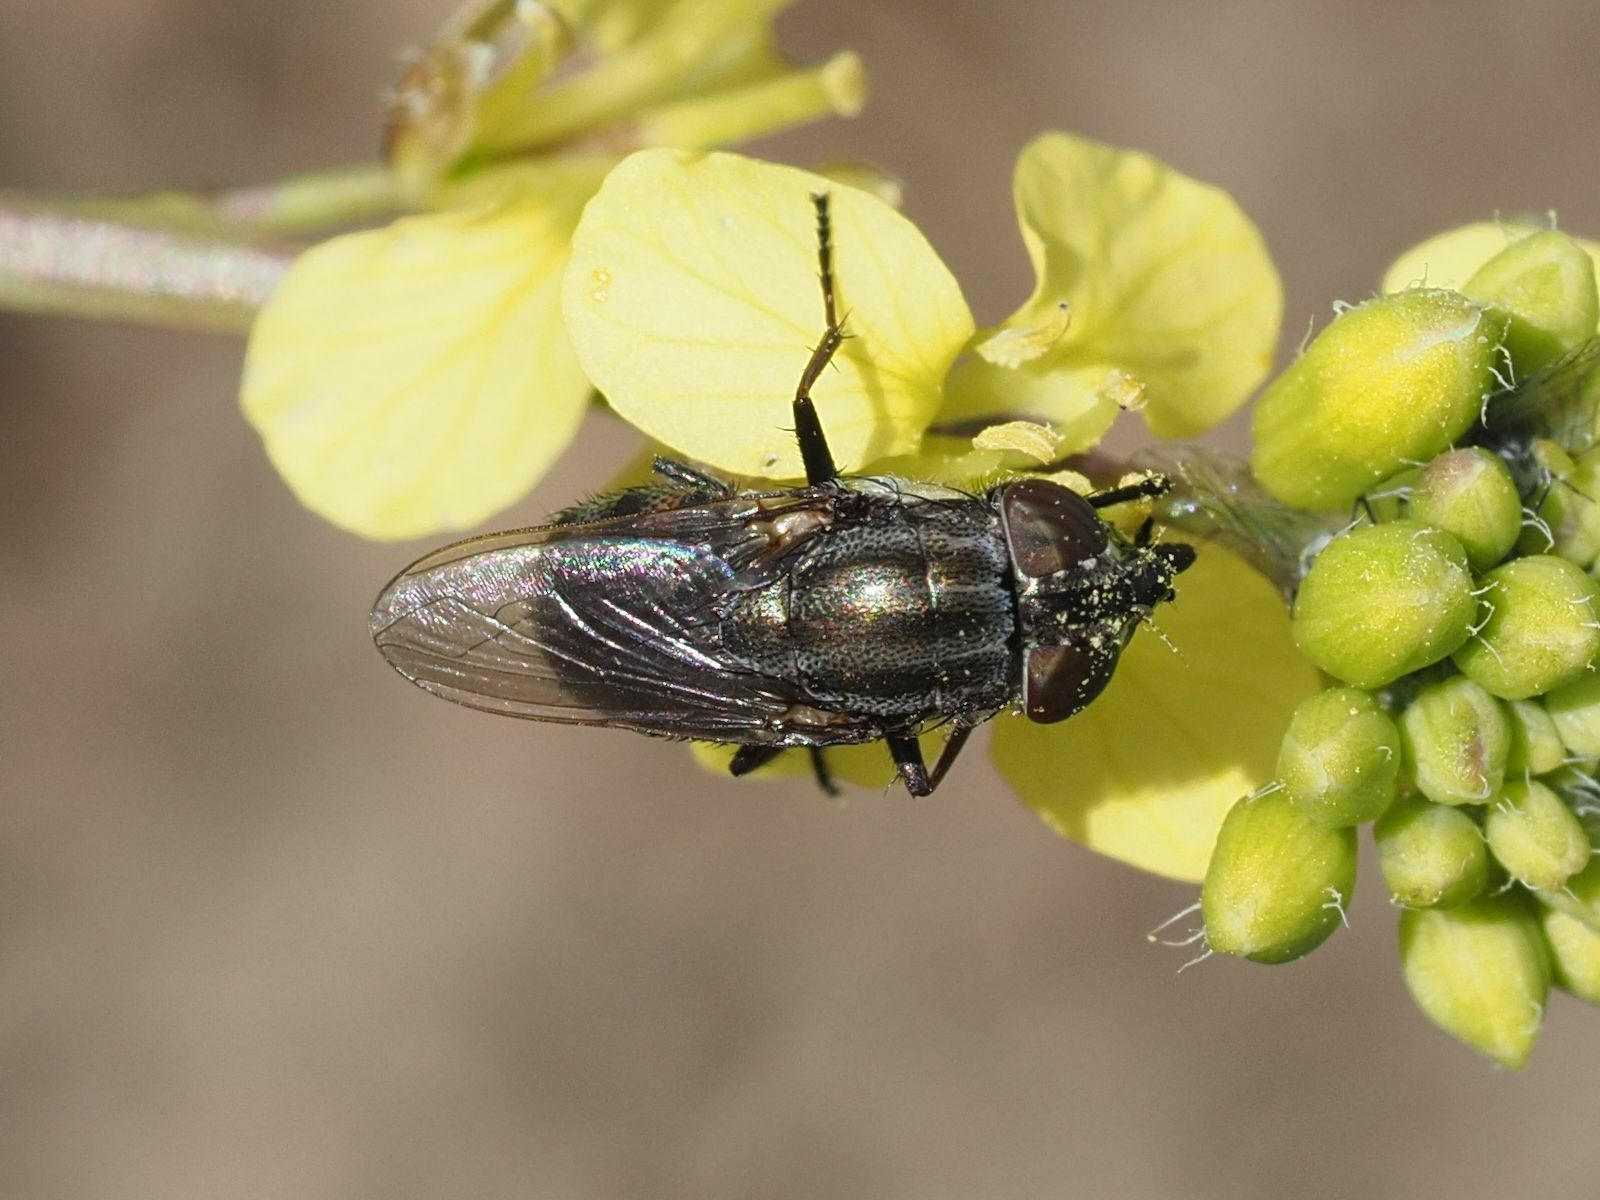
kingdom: Animalia
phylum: Arthropoda
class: Insecta
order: Diptera
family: Calliphoridae
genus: Stomorhina
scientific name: Stomorhina lunata
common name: Locust blowfly
